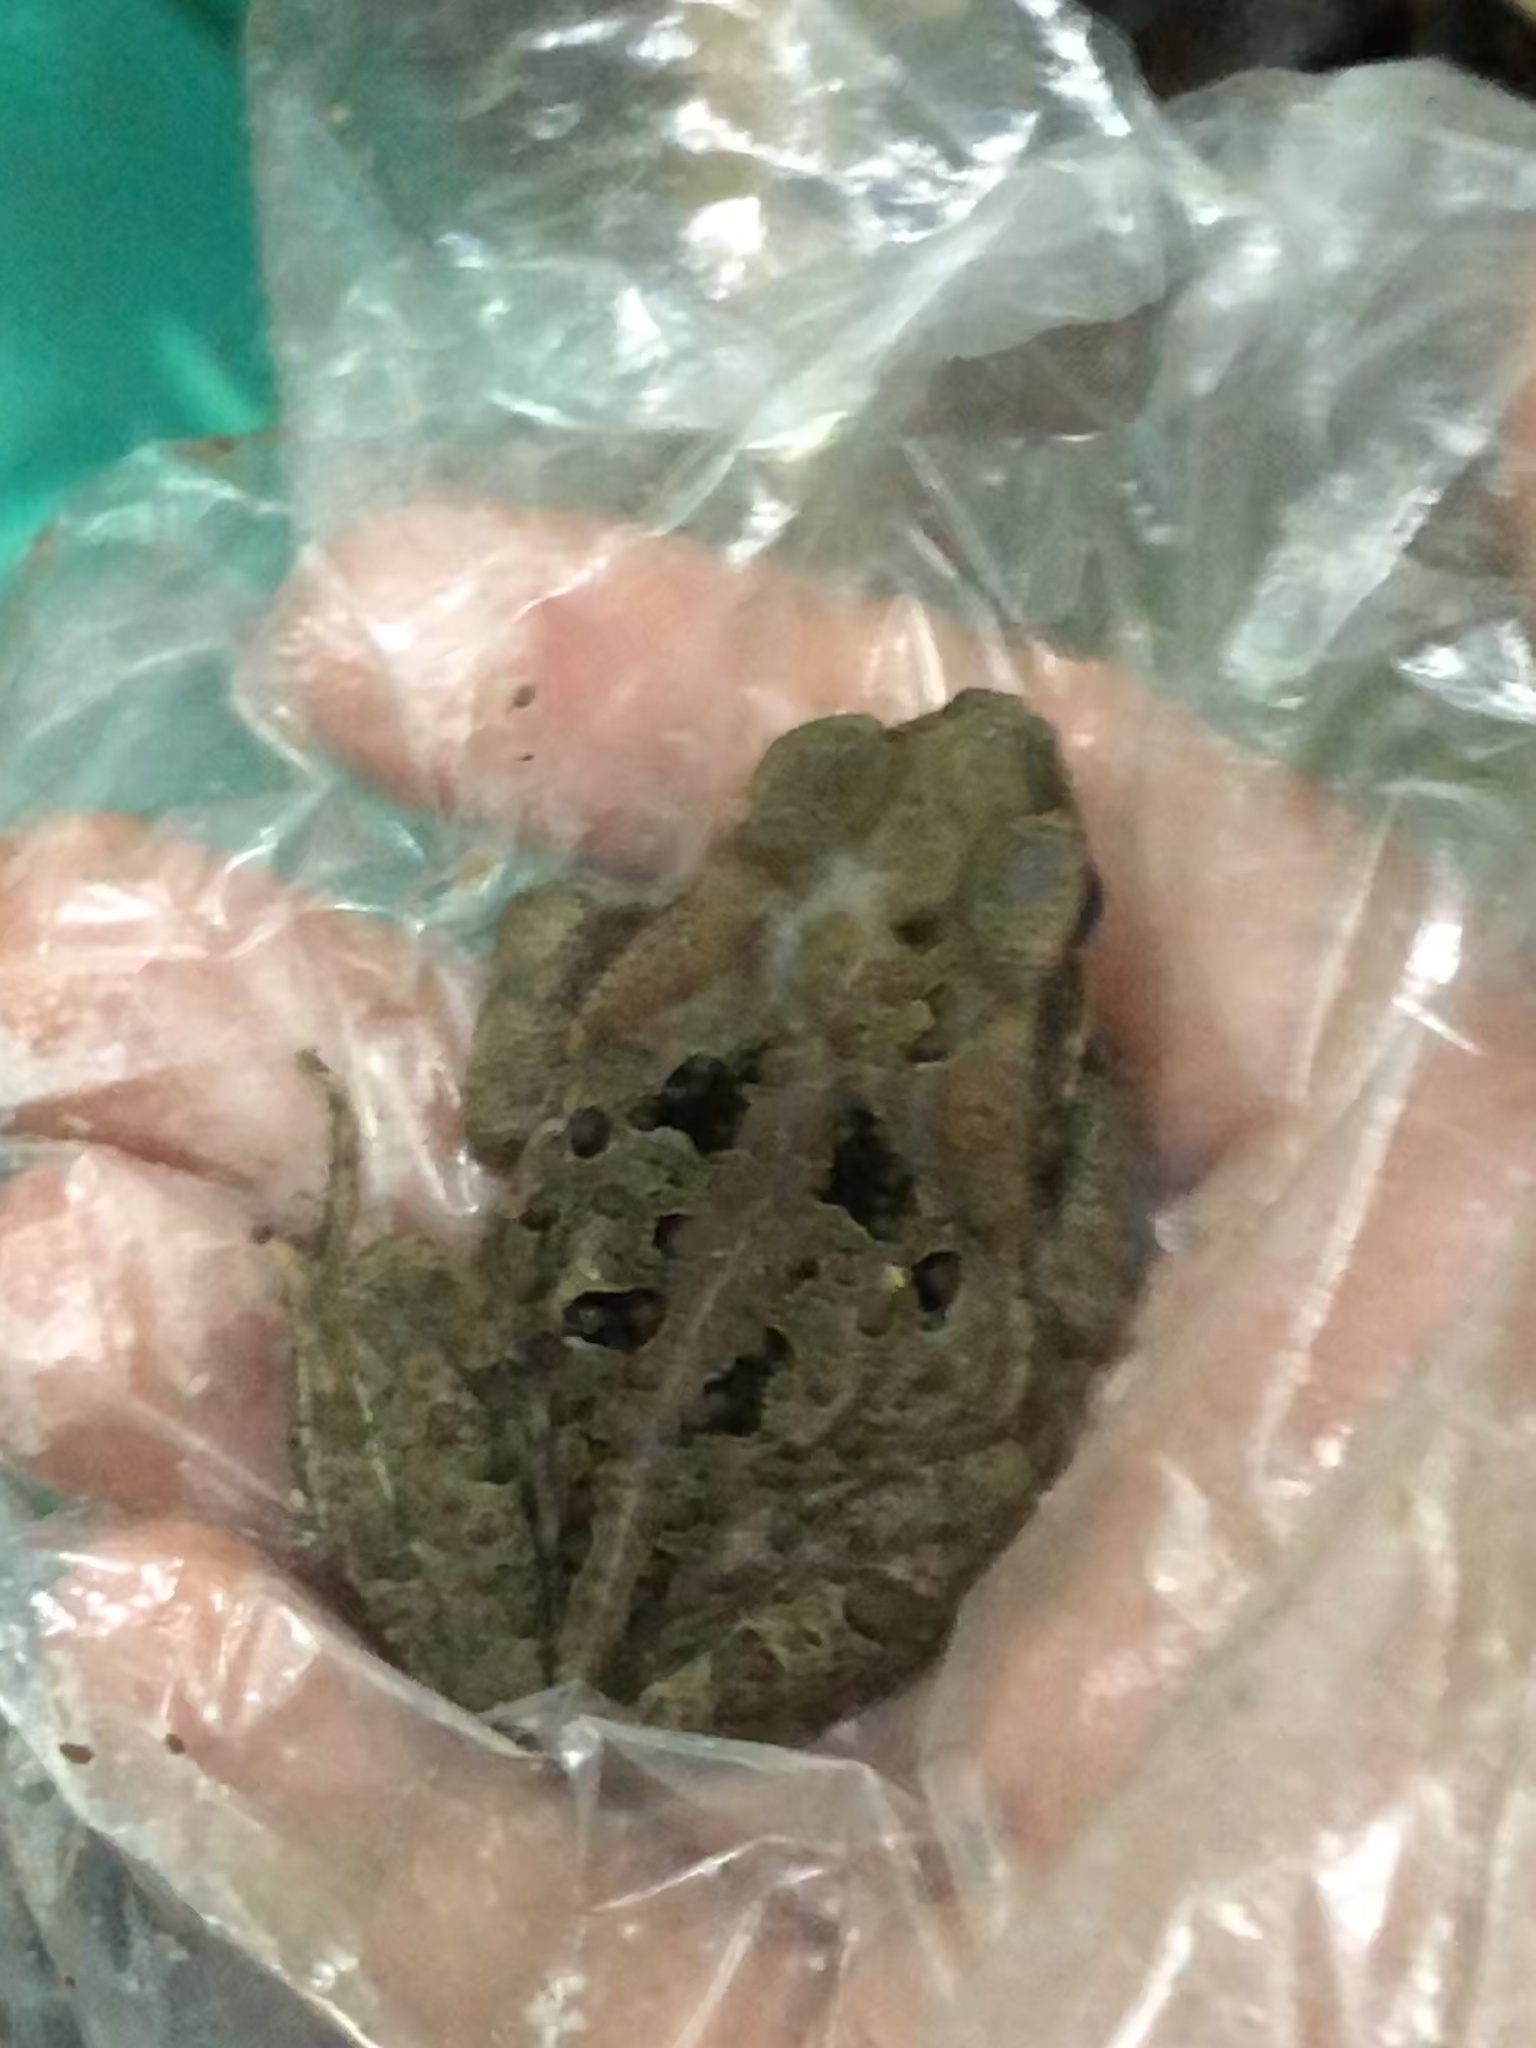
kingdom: Animalia
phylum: Chordata
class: Amphibia
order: Anura
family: Bufonidae
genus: Rhinella
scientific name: Rhinella marina
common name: Cane toad
